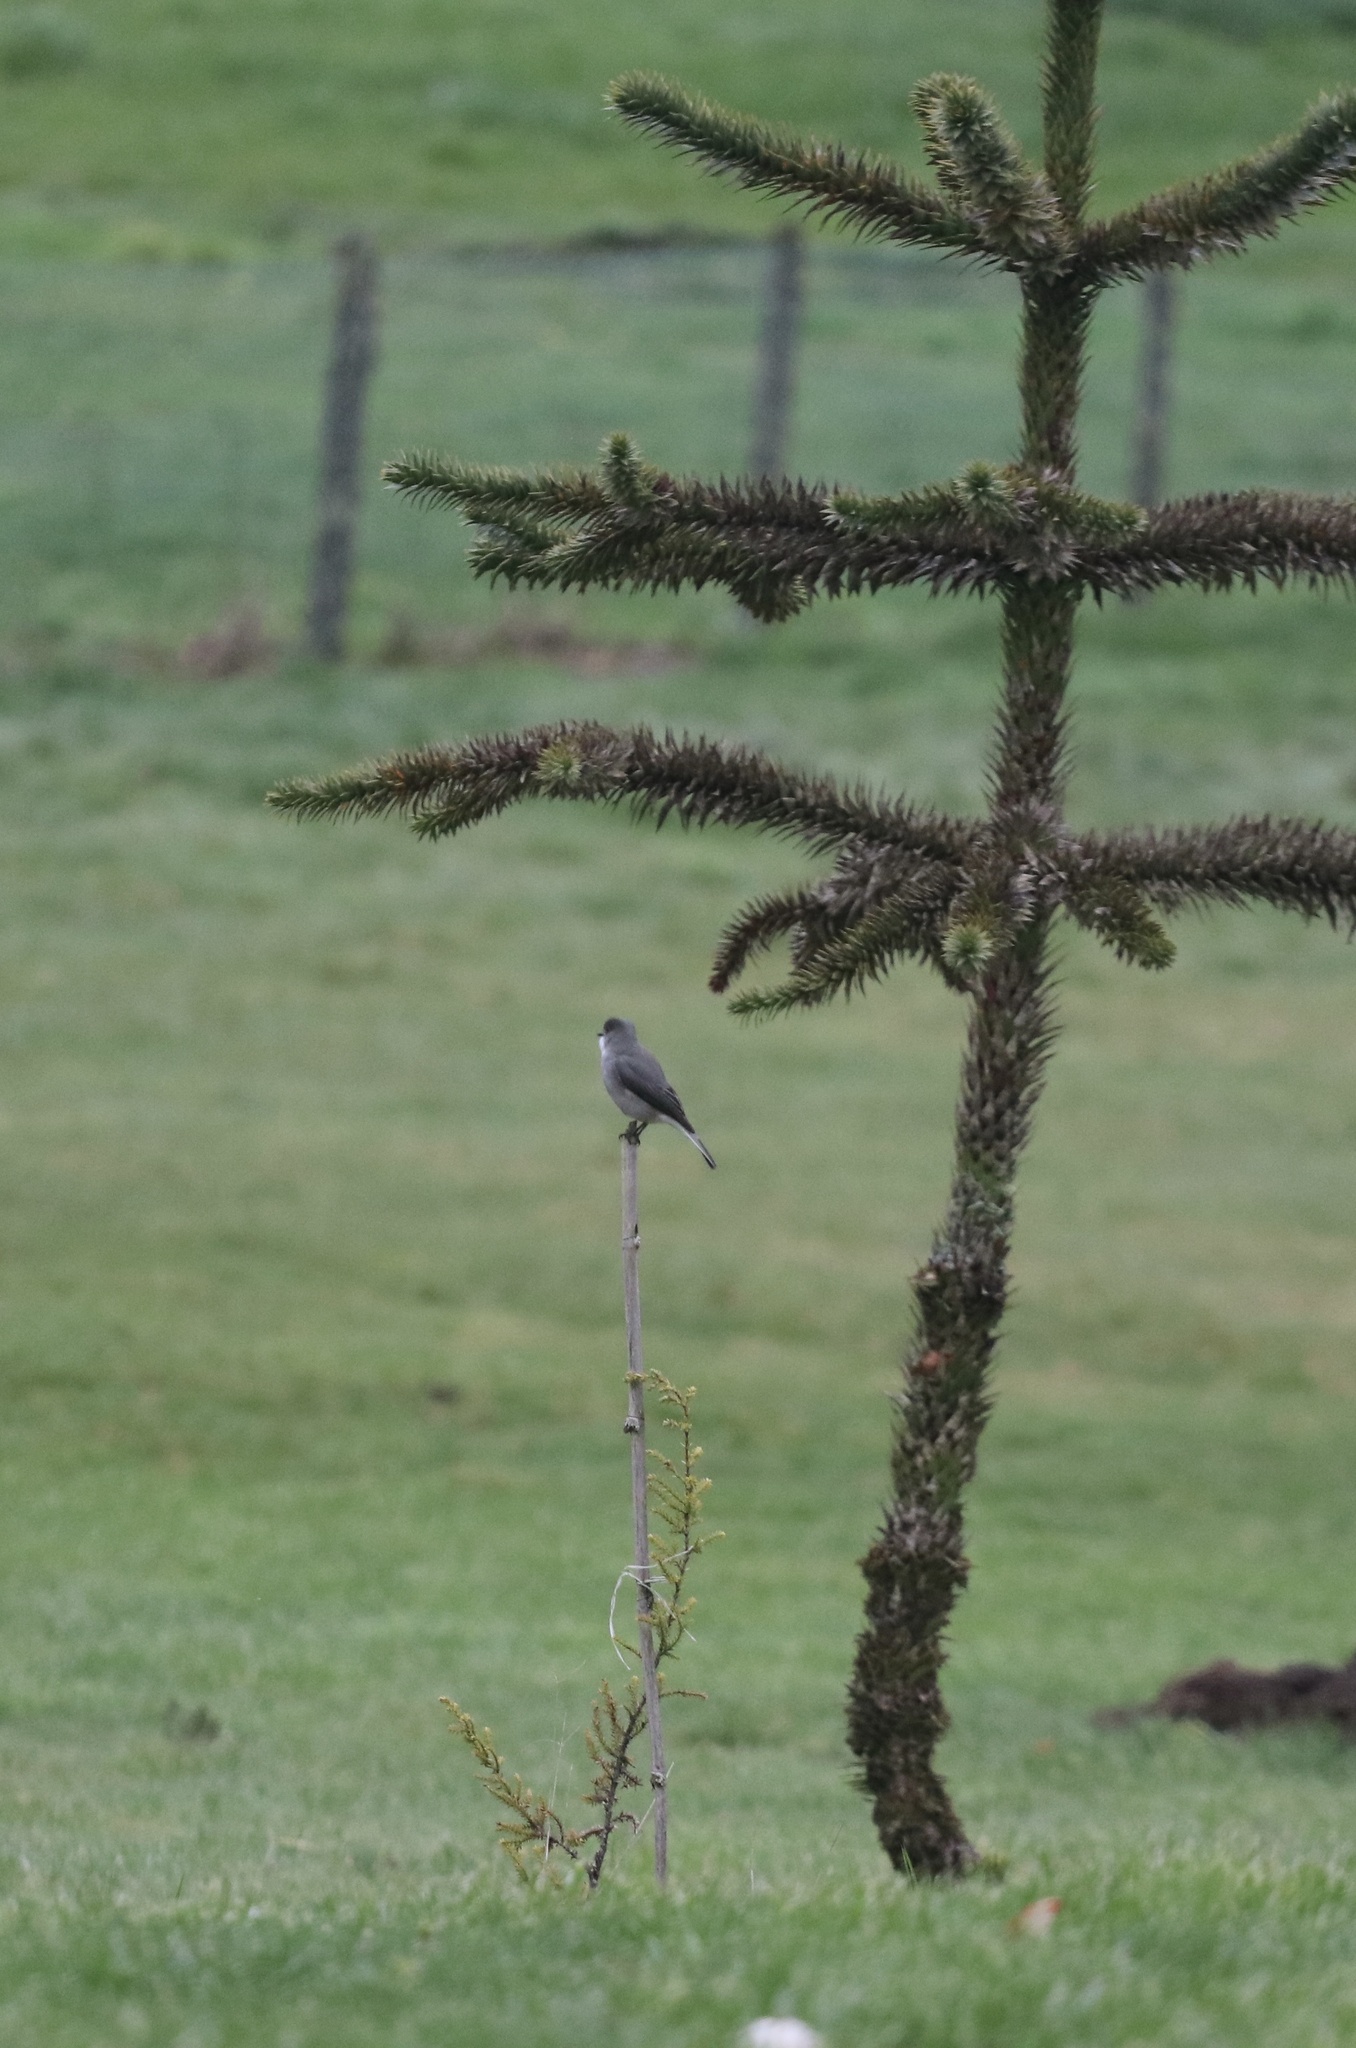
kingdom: Animalia
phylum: Chordata
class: Aves
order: Passeriformes
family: Tyrannidae
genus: Xolmis
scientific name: Xolmis pyrope
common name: Fire-eyed diucon
